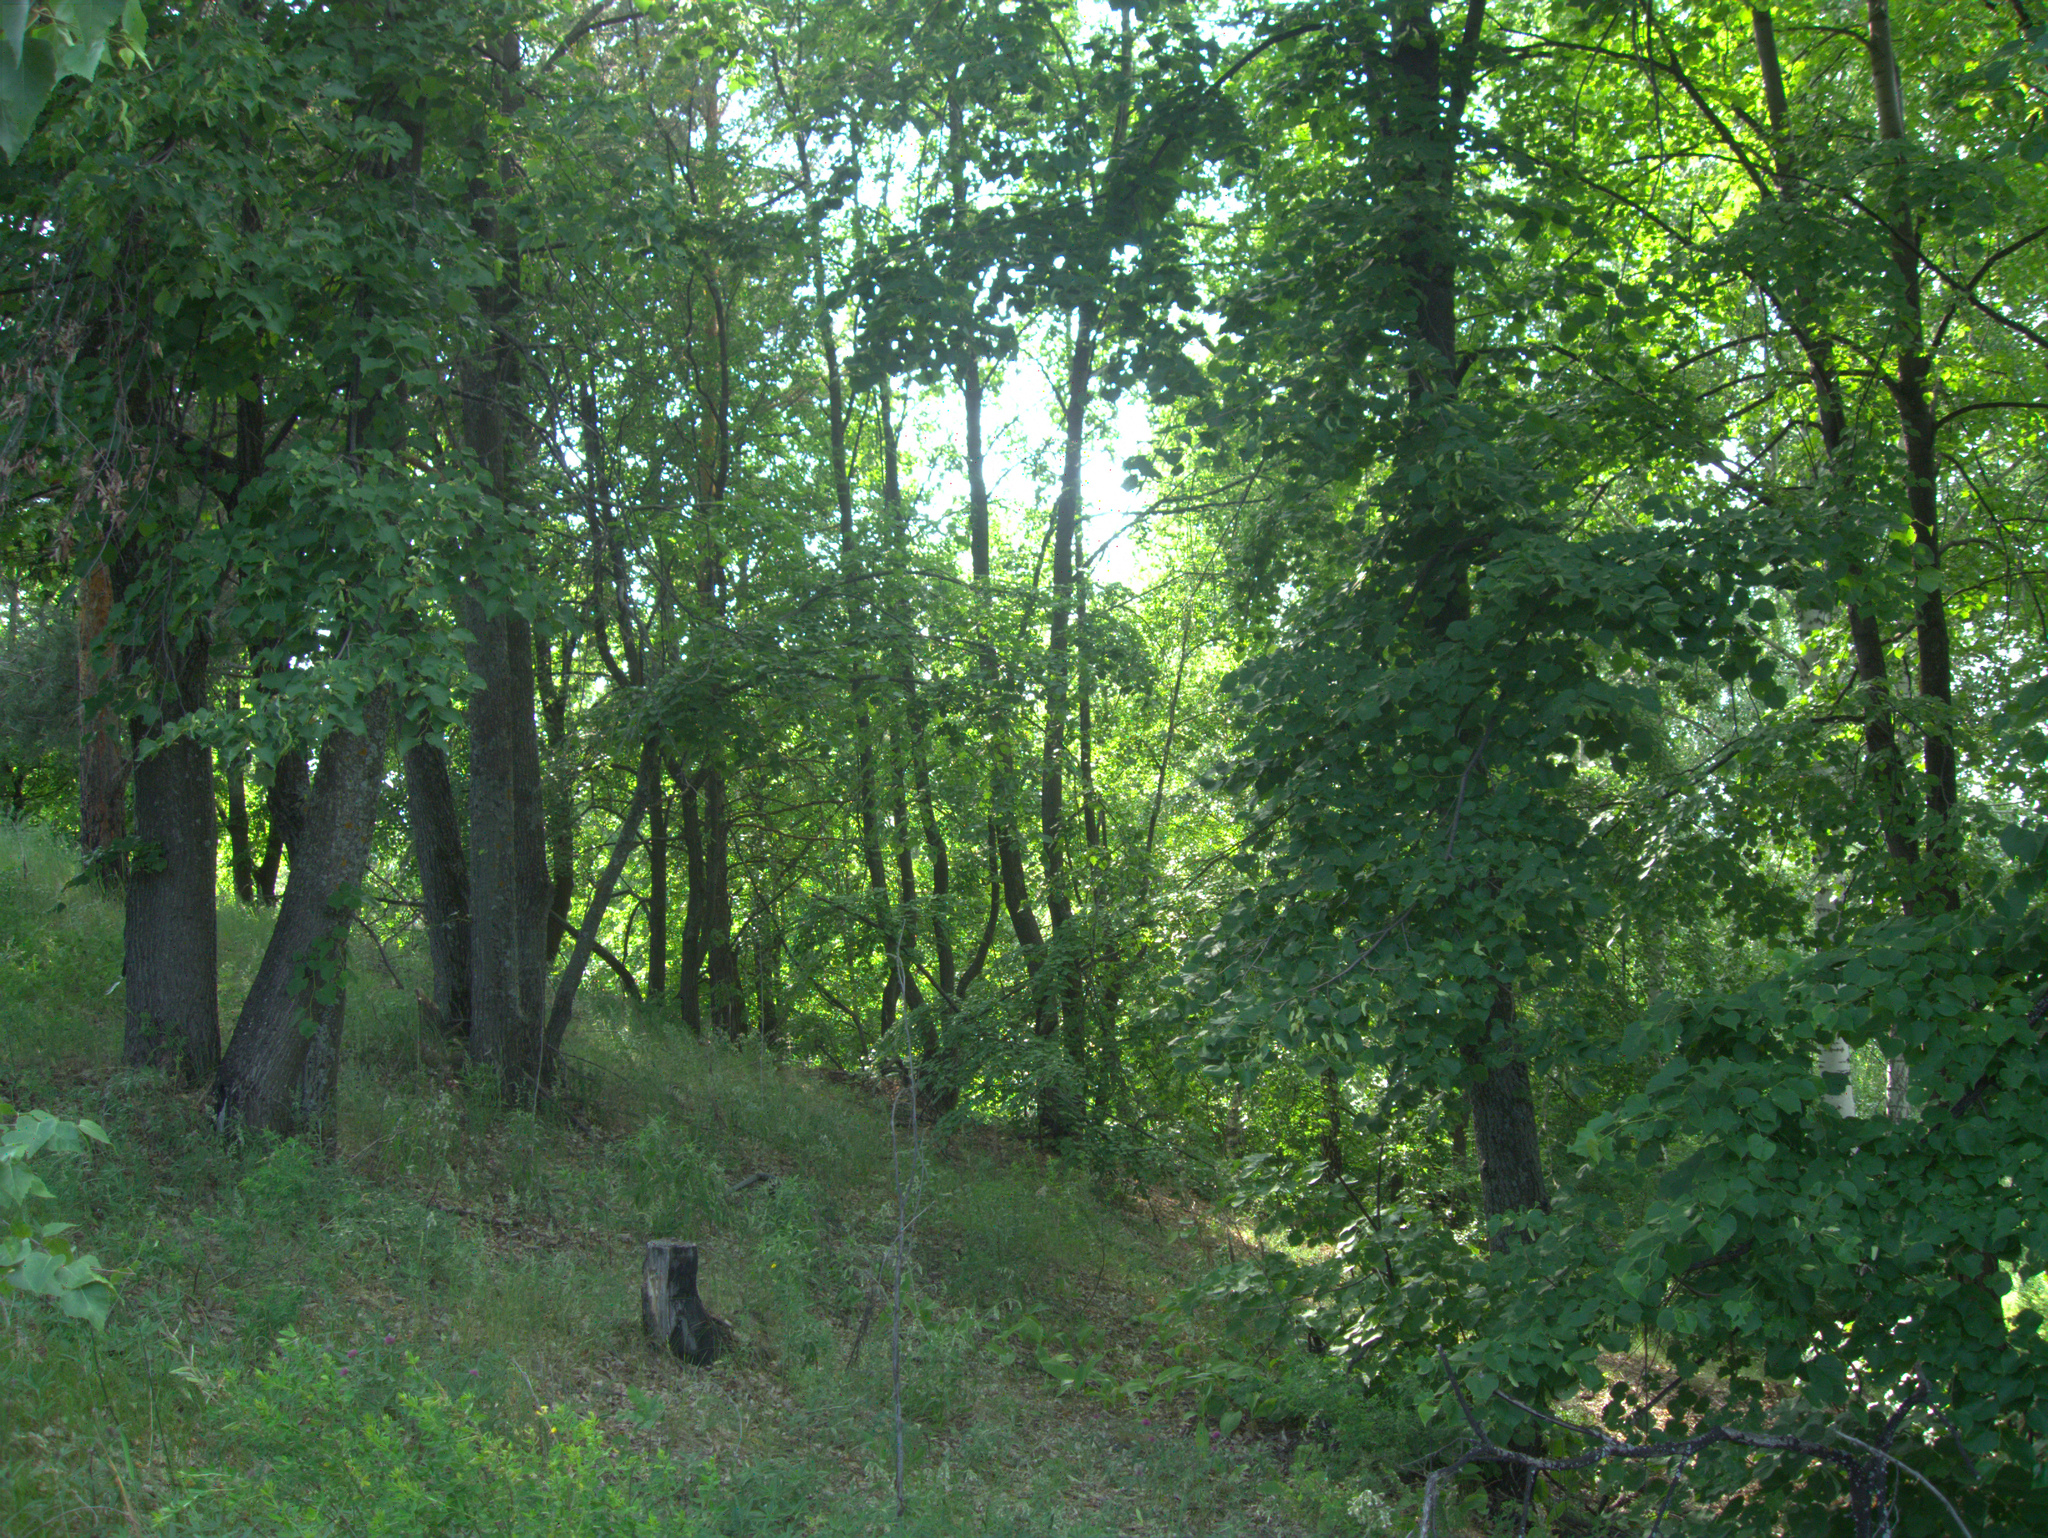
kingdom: Plantae
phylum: Tracheophyta
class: Magnoliopsida
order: Malvales
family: Malvaceae
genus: Tilia
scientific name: Tilia cordata
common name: Small-leaved lime
